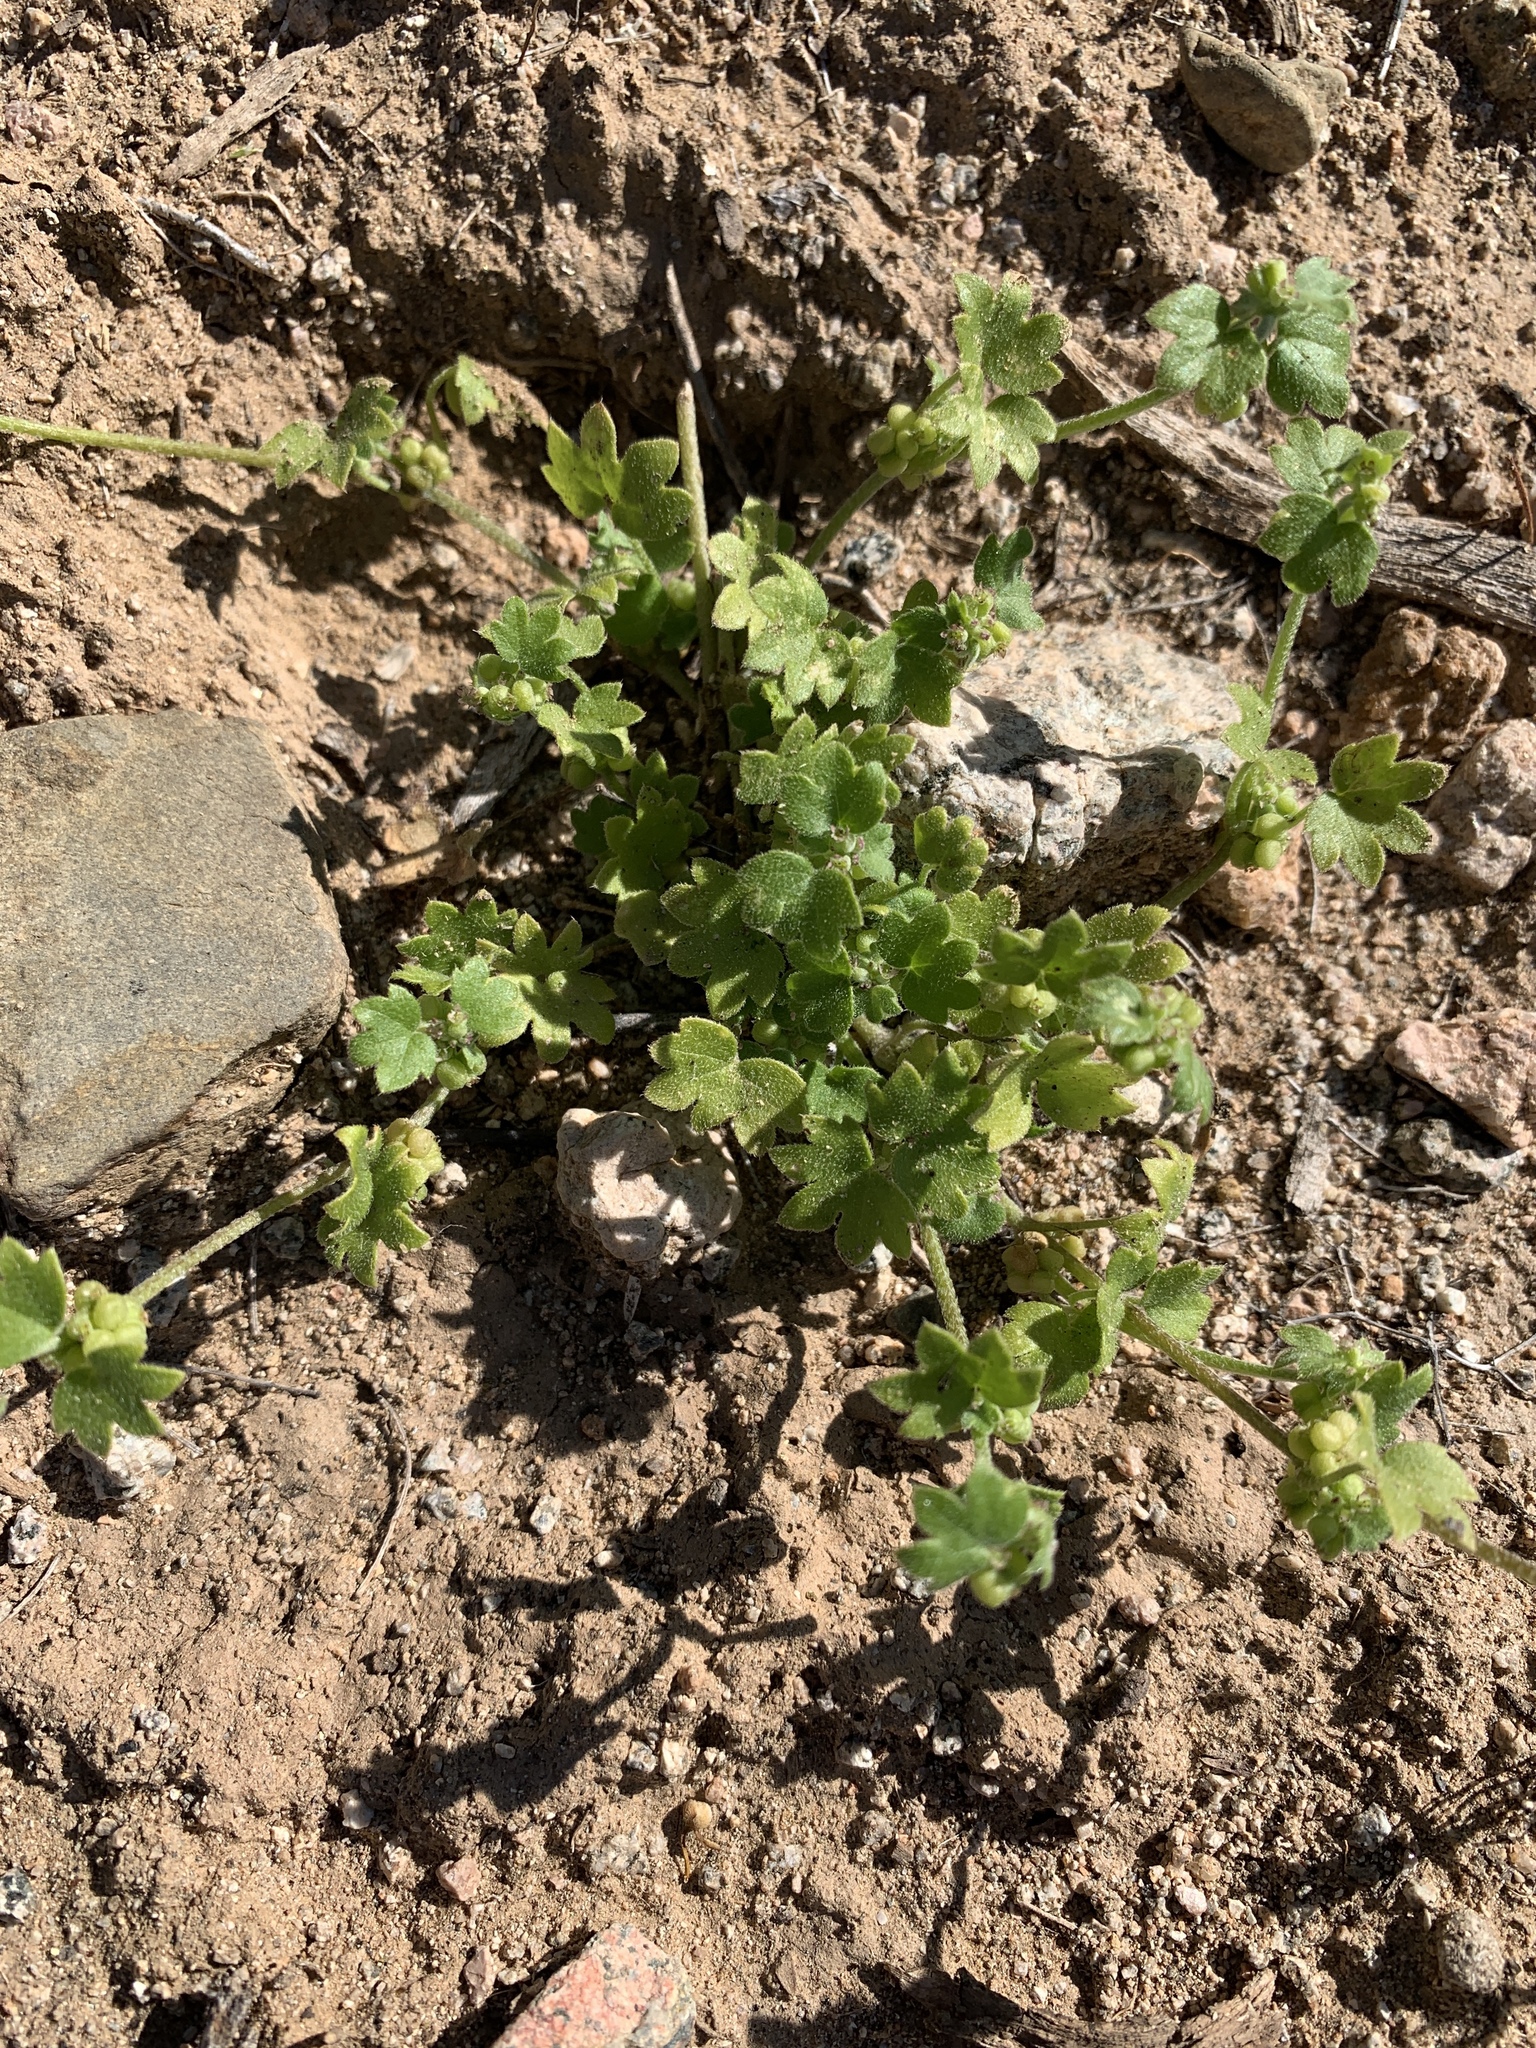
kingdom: Plantae
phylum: Tracheophyta
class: Magnoliopsida
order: Apiales
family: Apiaceae
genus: Bowlesia
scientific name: Bowlesia incana
